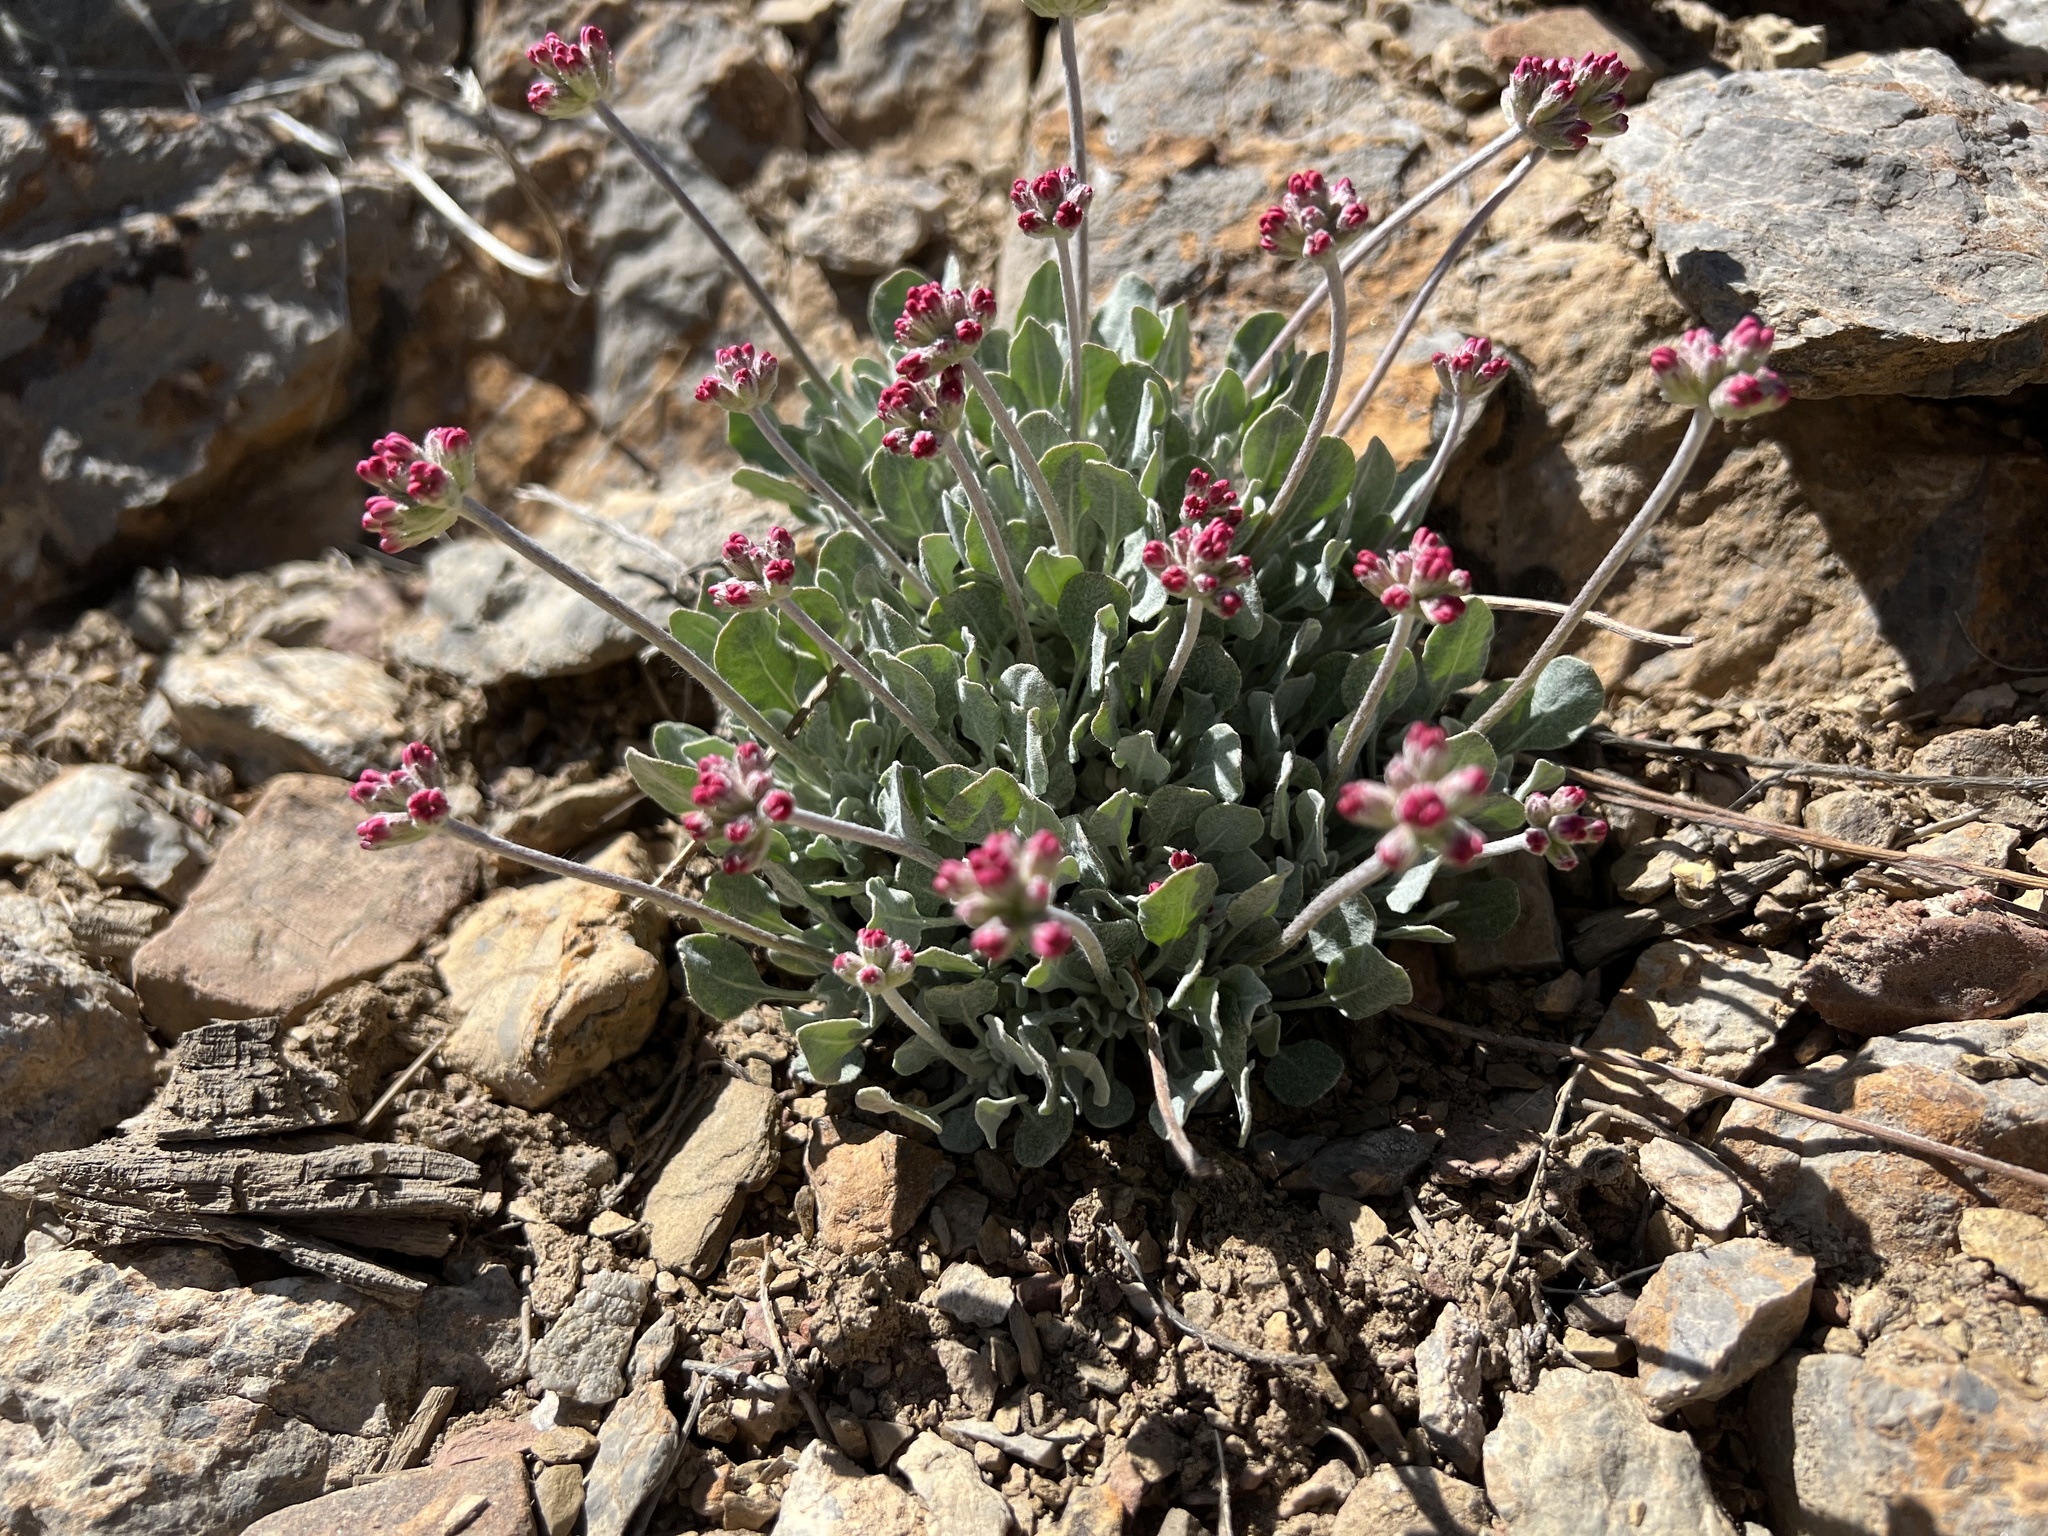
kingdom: Plantae
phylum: Tracheophyta
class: Magnoliopsida
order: Caryophyllales
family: Polygonaceae
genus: Eriogonum
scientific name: Eriogonum ovalifolium
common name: Cushion buckwheat
